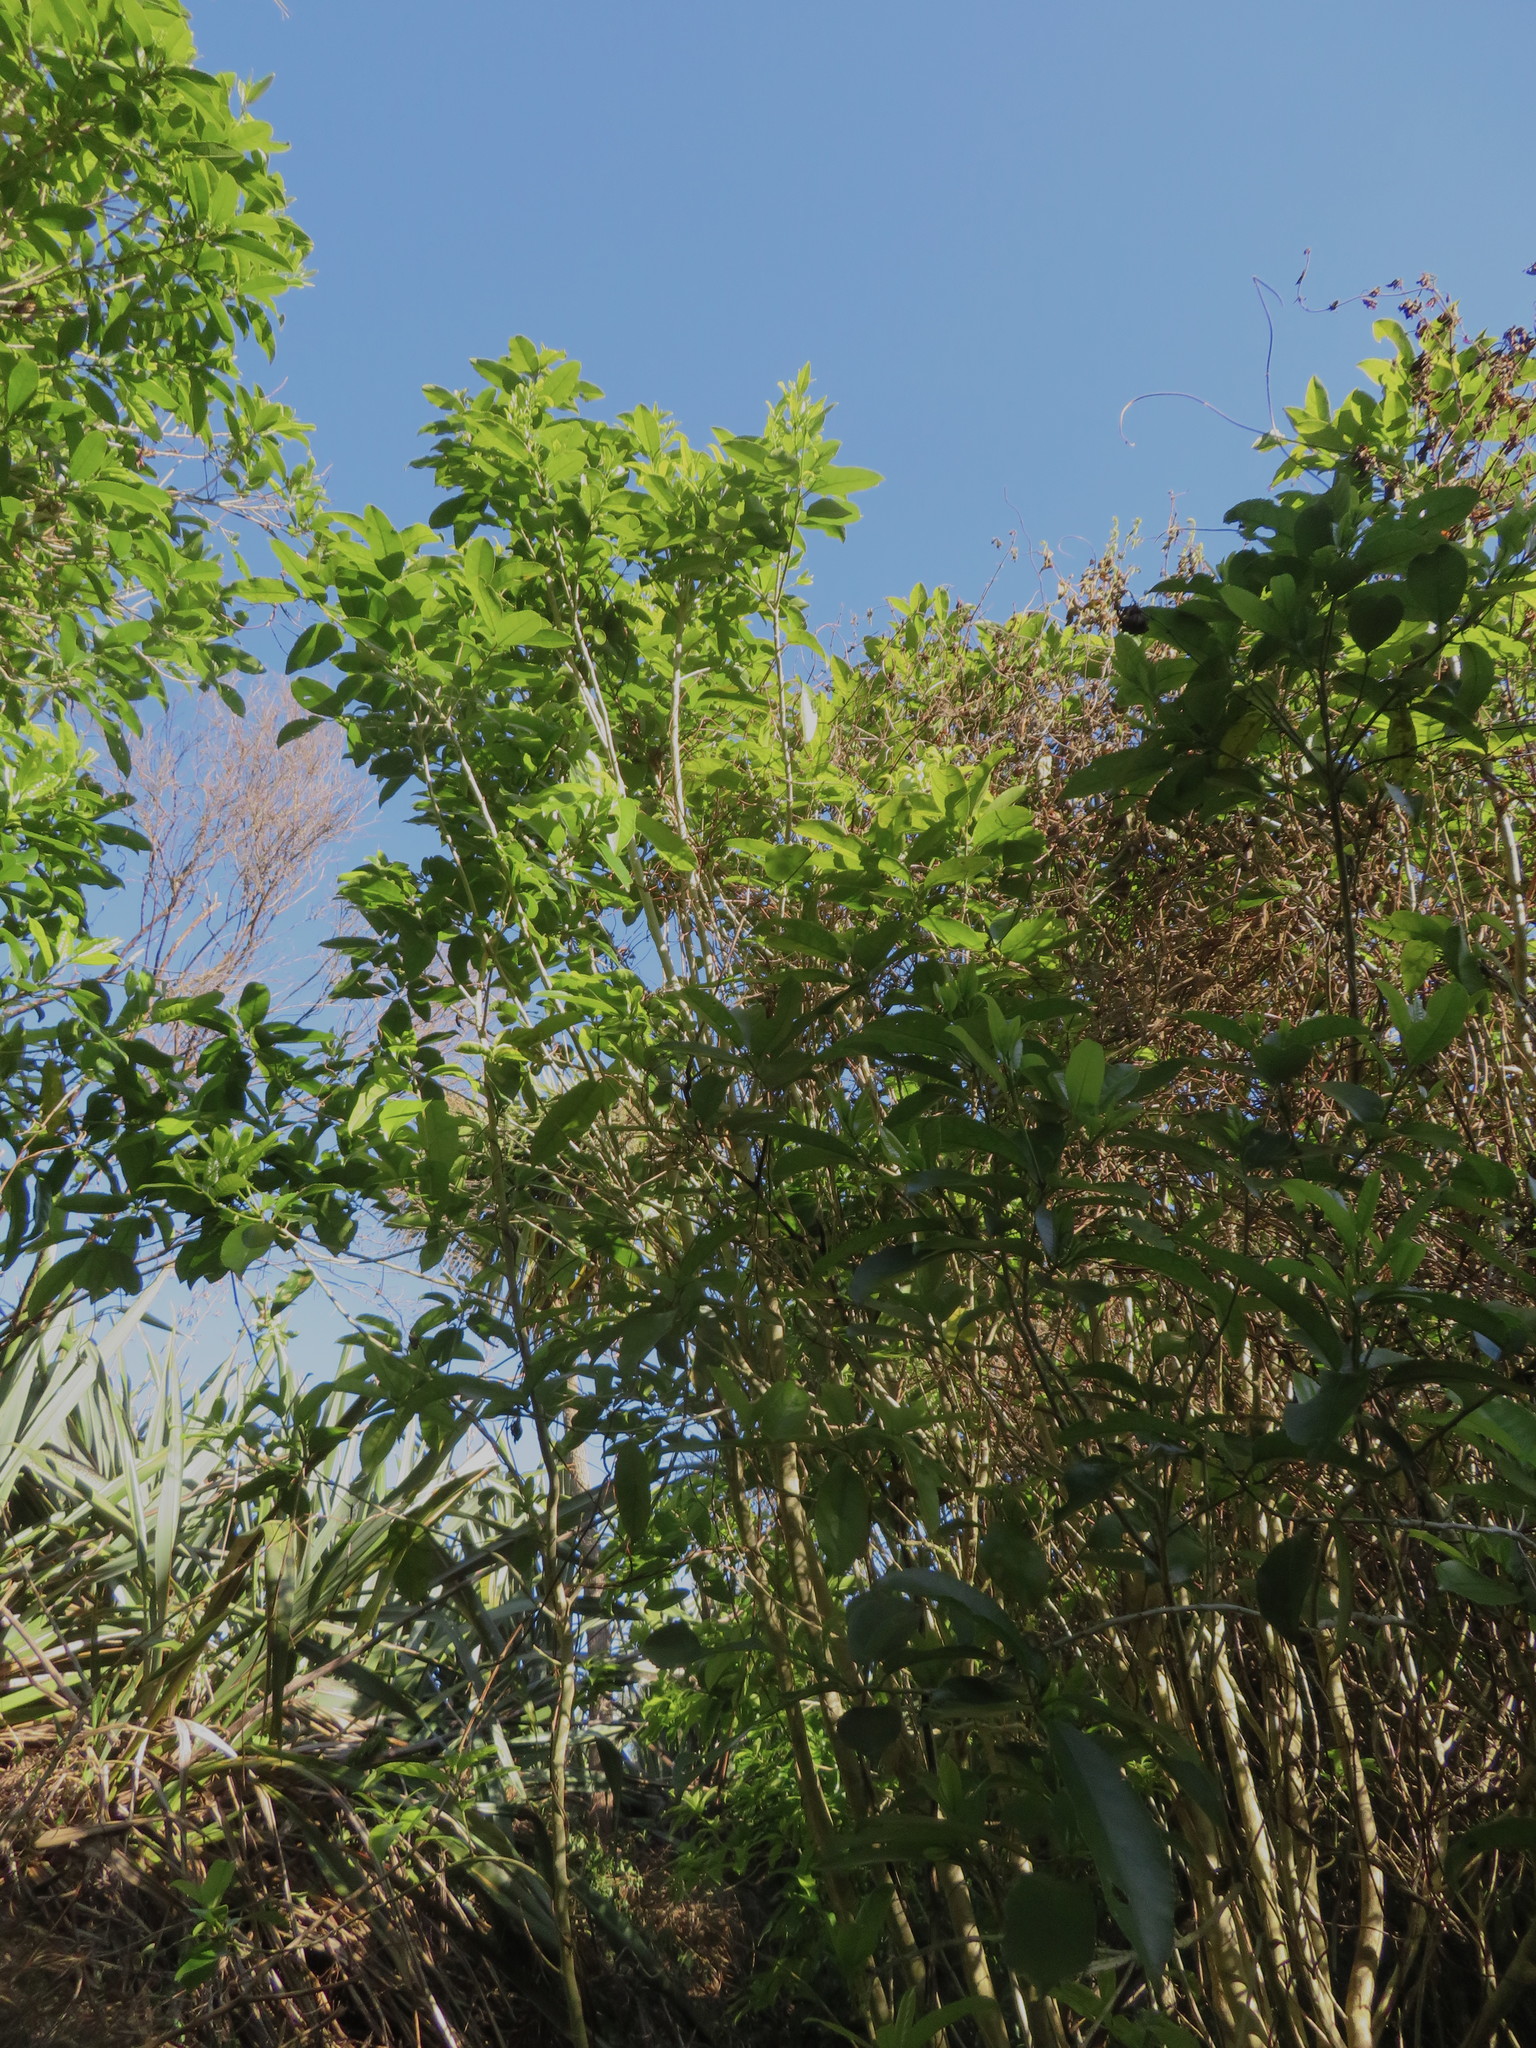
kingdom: Plantae
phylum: Tracheophyta
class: Magnoliopsida
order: Malpighiales
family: Violaceae
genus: Melicytus
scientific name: Melicytus ramiflorus
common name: Mahoe
